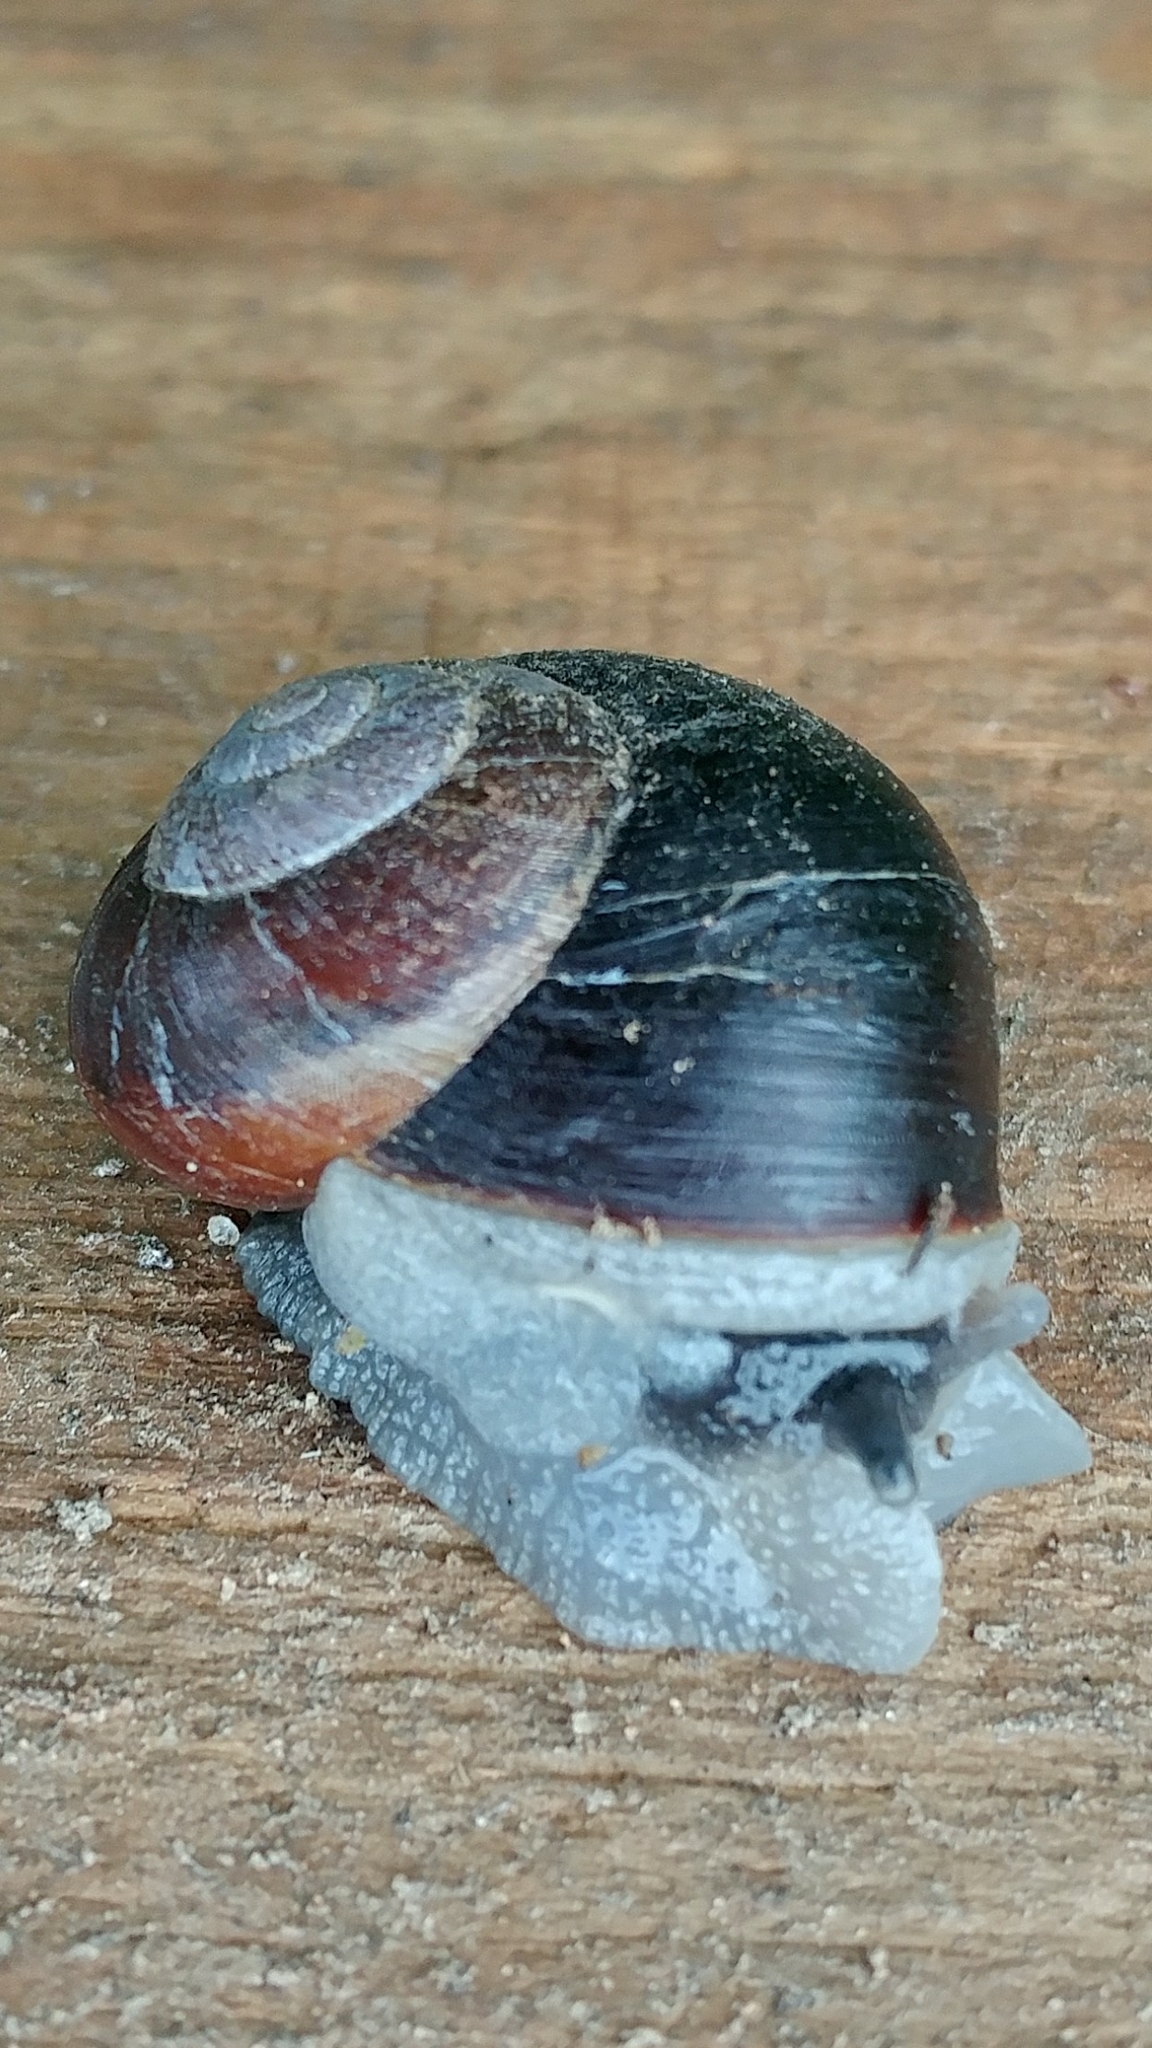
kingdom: Animalia
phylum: Mollusca
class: Gastropoda
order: Stylommatophora
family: Xanthonychidae
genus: Xerarionta
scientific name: Xerarionta redimita
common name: Wreathed cactus snail
